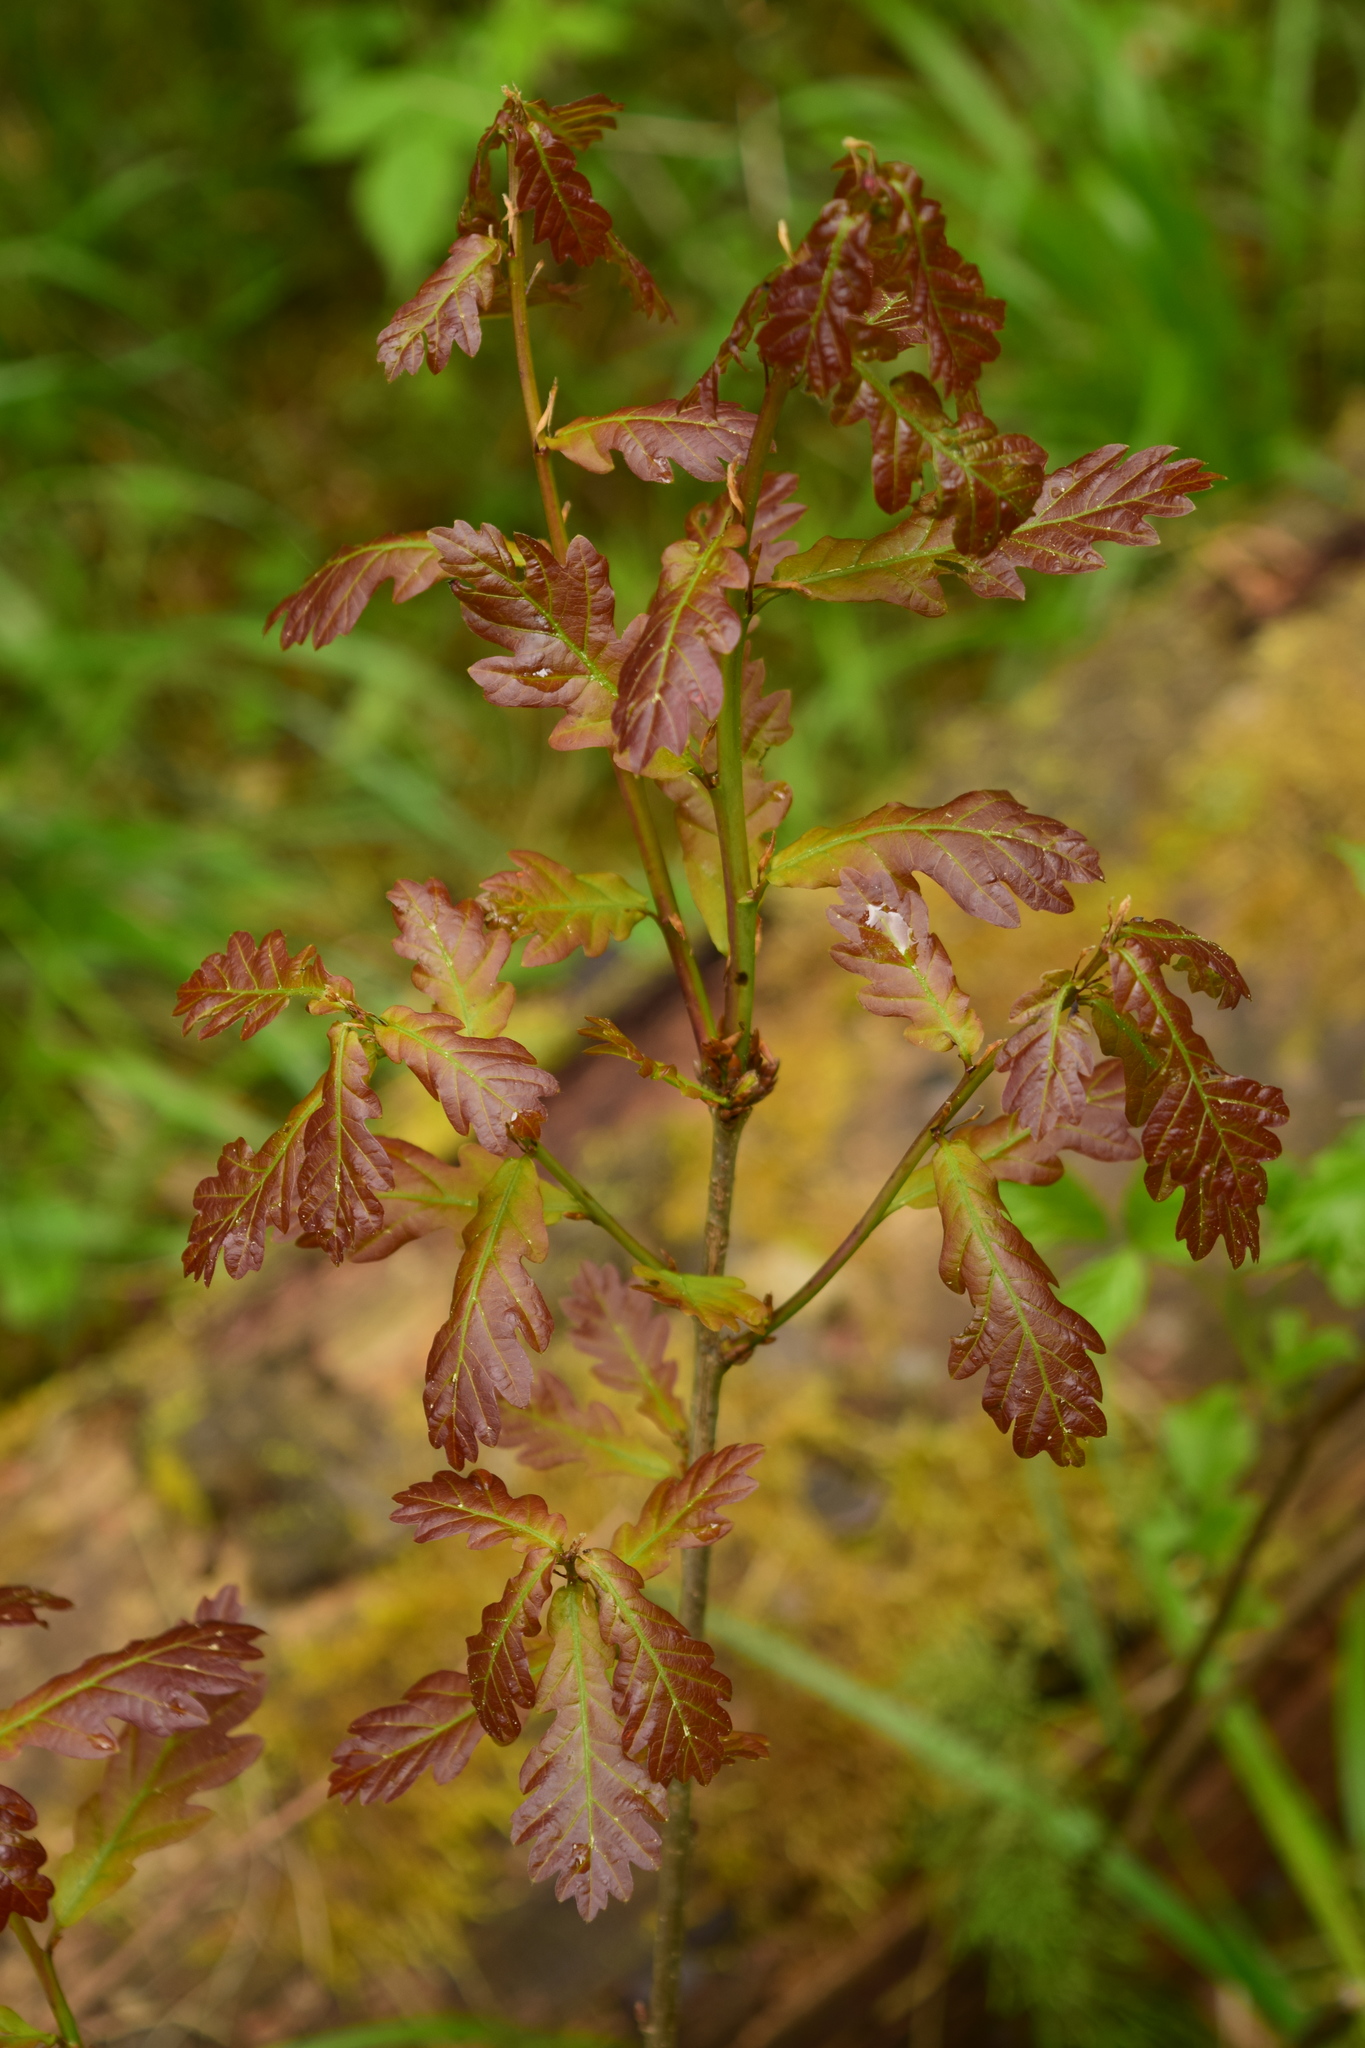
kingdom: Plantae
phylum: Tracheophyta
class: Magnoliopsida
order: Fagales
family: Fagaceae
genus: Quercus
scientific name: Quercus robur
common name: Pedunculate oak
